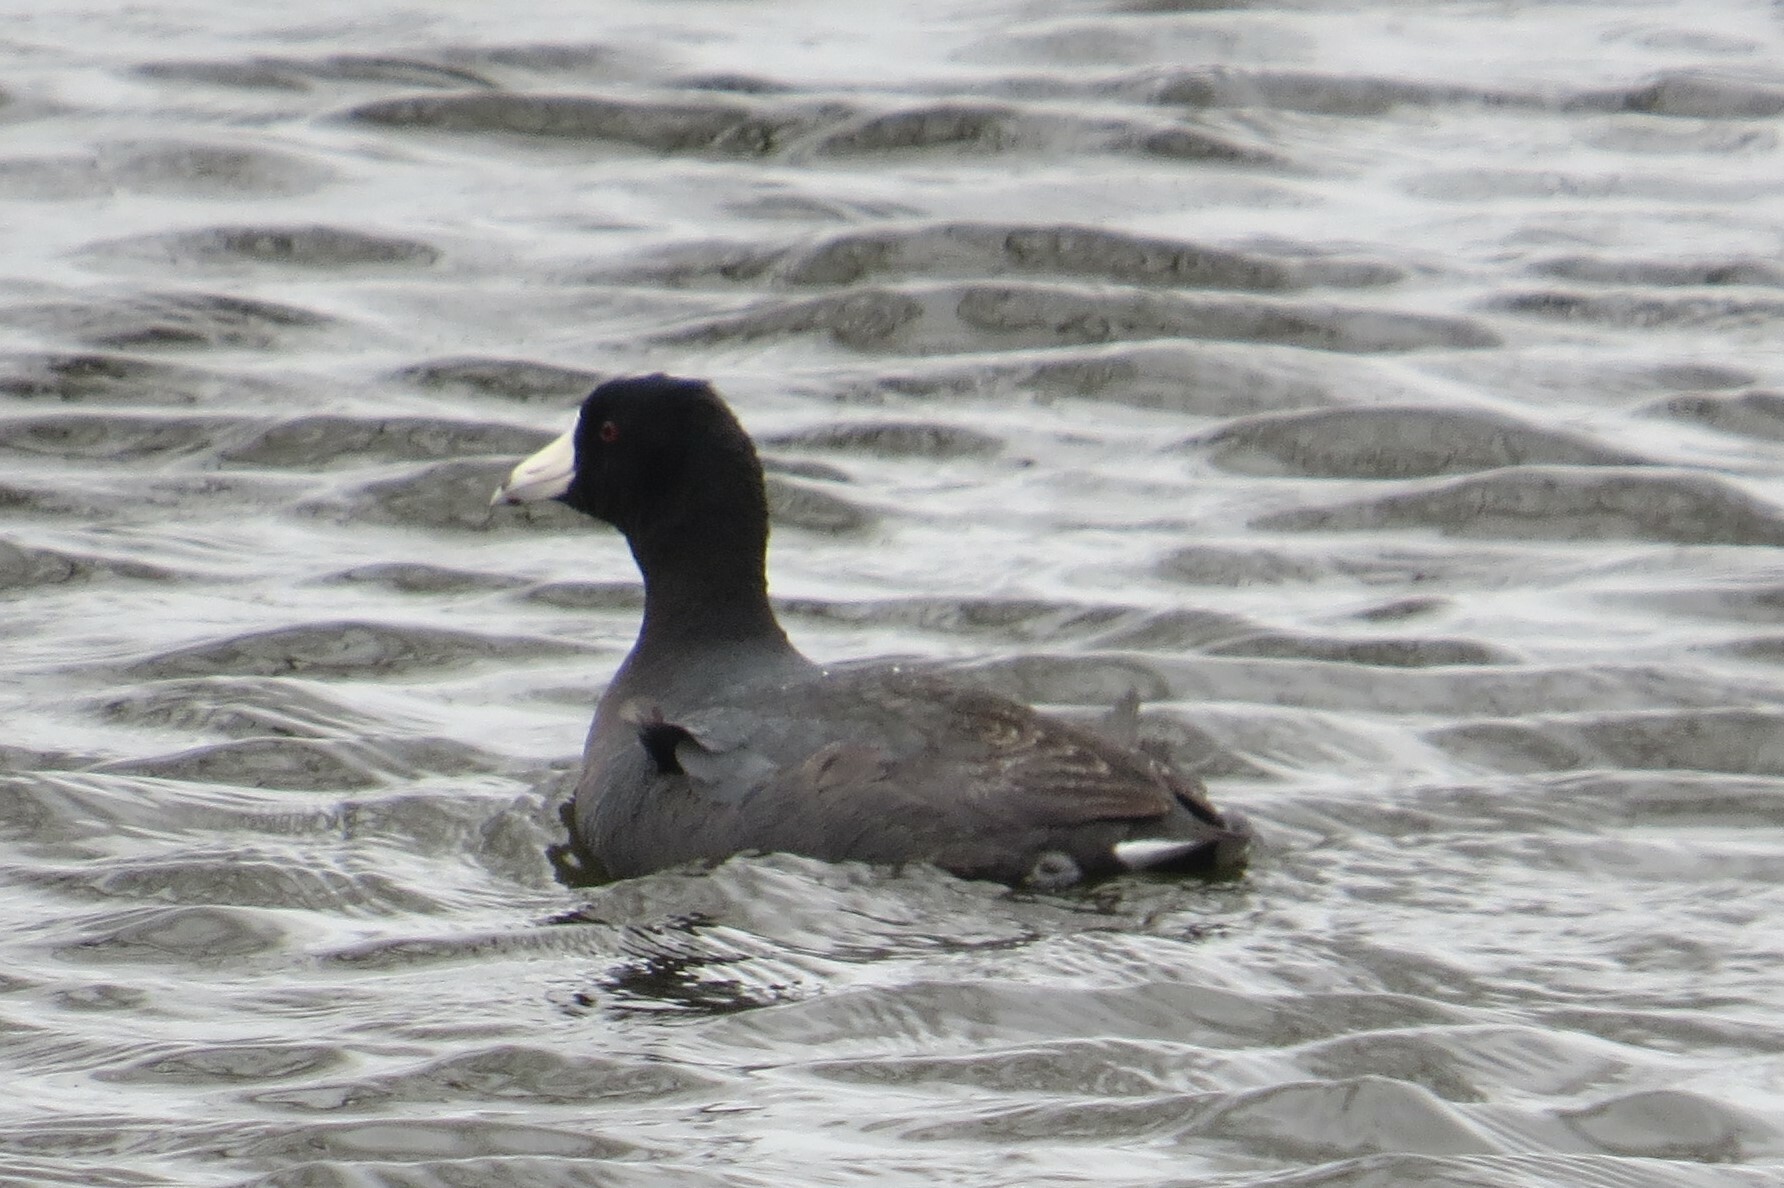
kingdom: Animalia
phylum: Chordata
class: Aves
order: Gruiformes
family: Rallidae
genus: Fulica
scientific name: Fulica americana
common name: American coot
